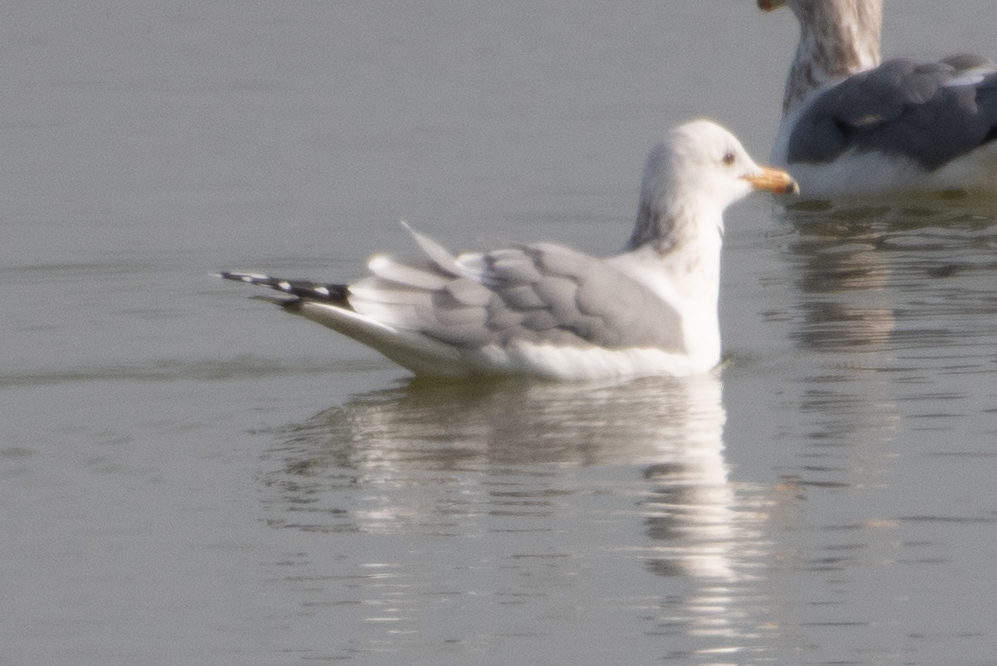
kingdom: Animalia
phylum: Chordata
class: Aves
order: Charadriiformes
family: Laridae
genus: Larus
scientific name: Larus californicus
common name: California gull
